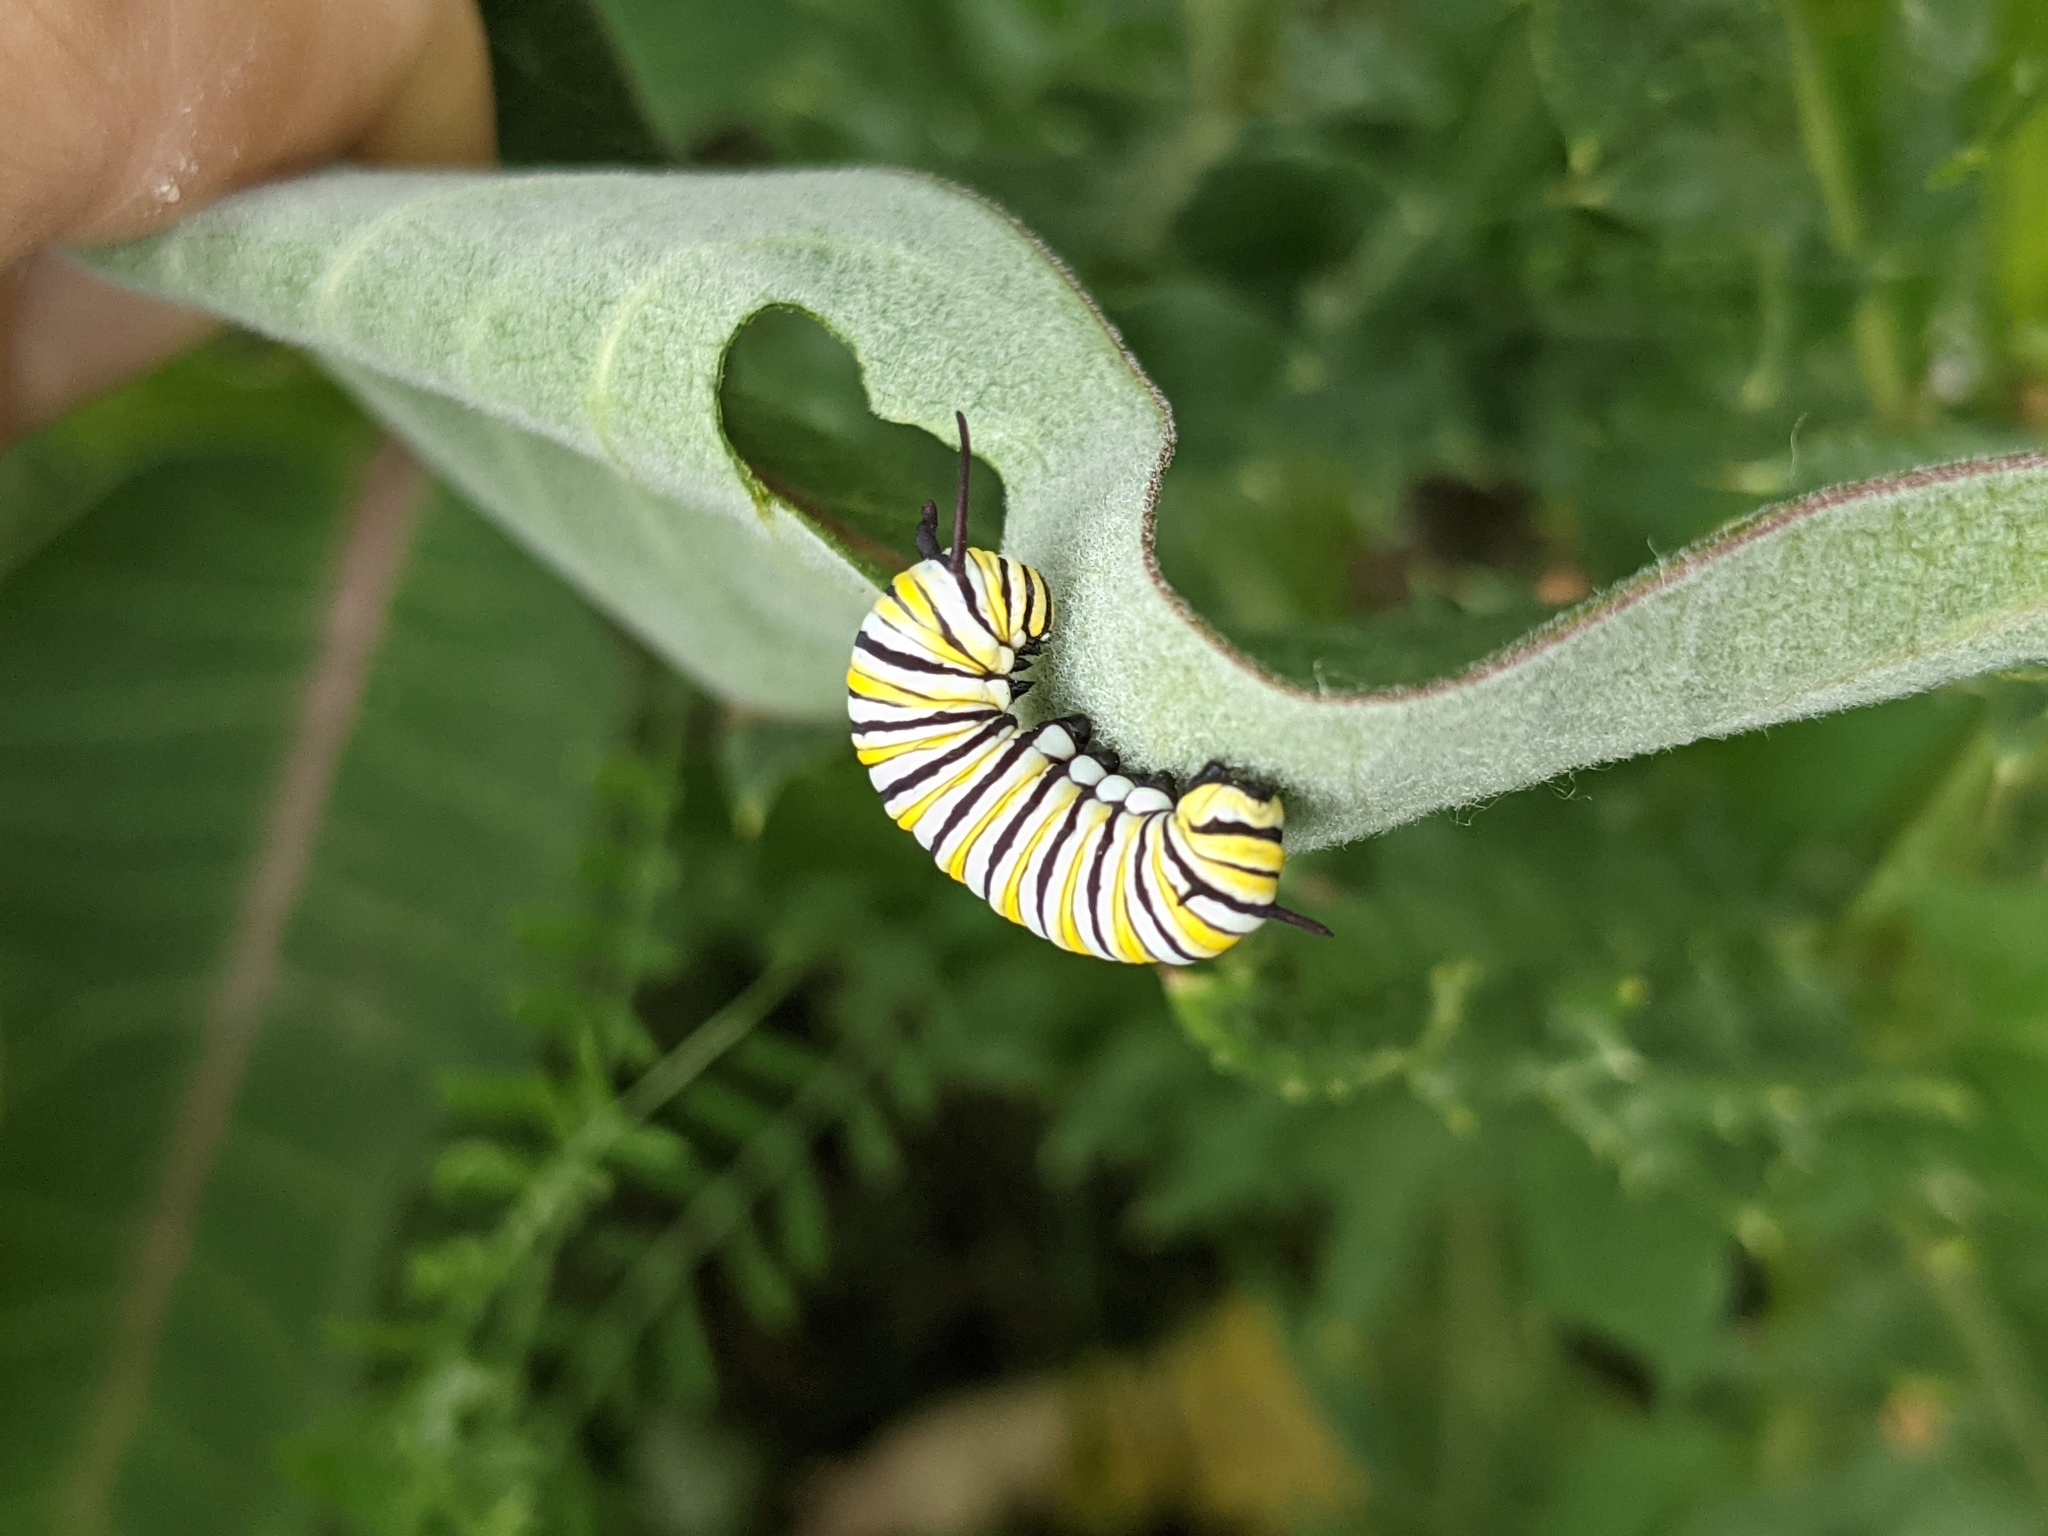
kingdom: Animalia
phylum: Arthropoda
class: Insecta
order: Lepidoptera
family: Nymphalidae
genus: Danaus
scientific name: Danaus plexippus
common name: Monarch
